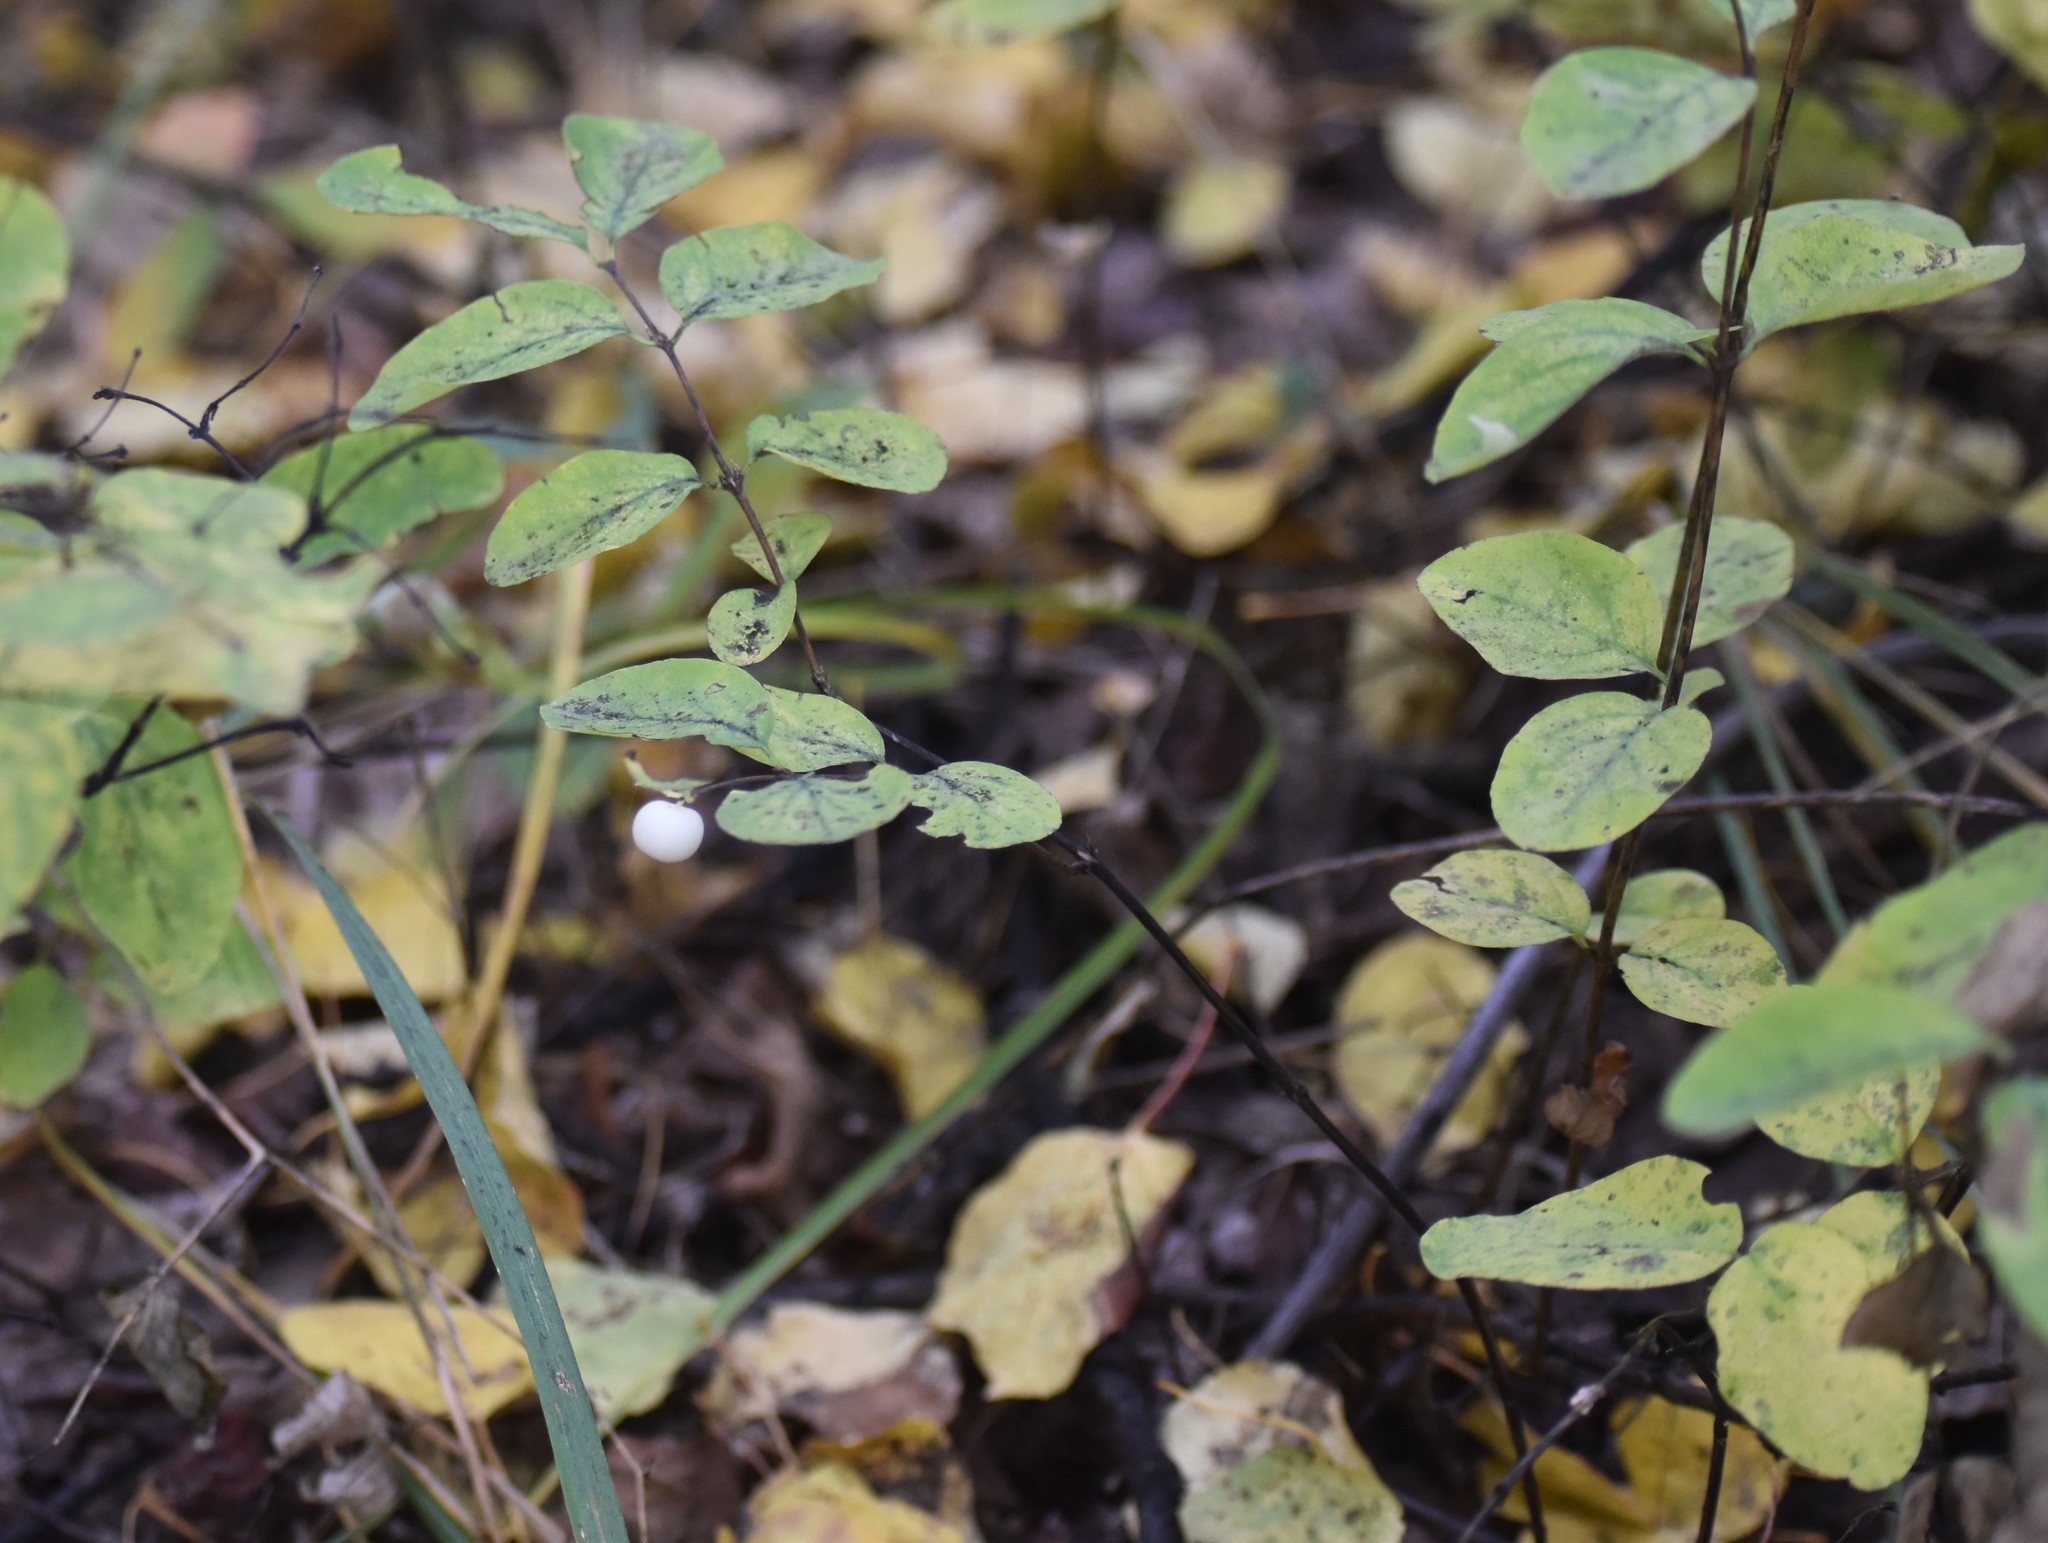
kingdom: Plantae
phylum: Tracheophyta
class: Magnoliopsida
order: Dipsacales
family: Caprifoliaceae
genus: Symphoricarpos
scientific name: Symphoricarpos albus
